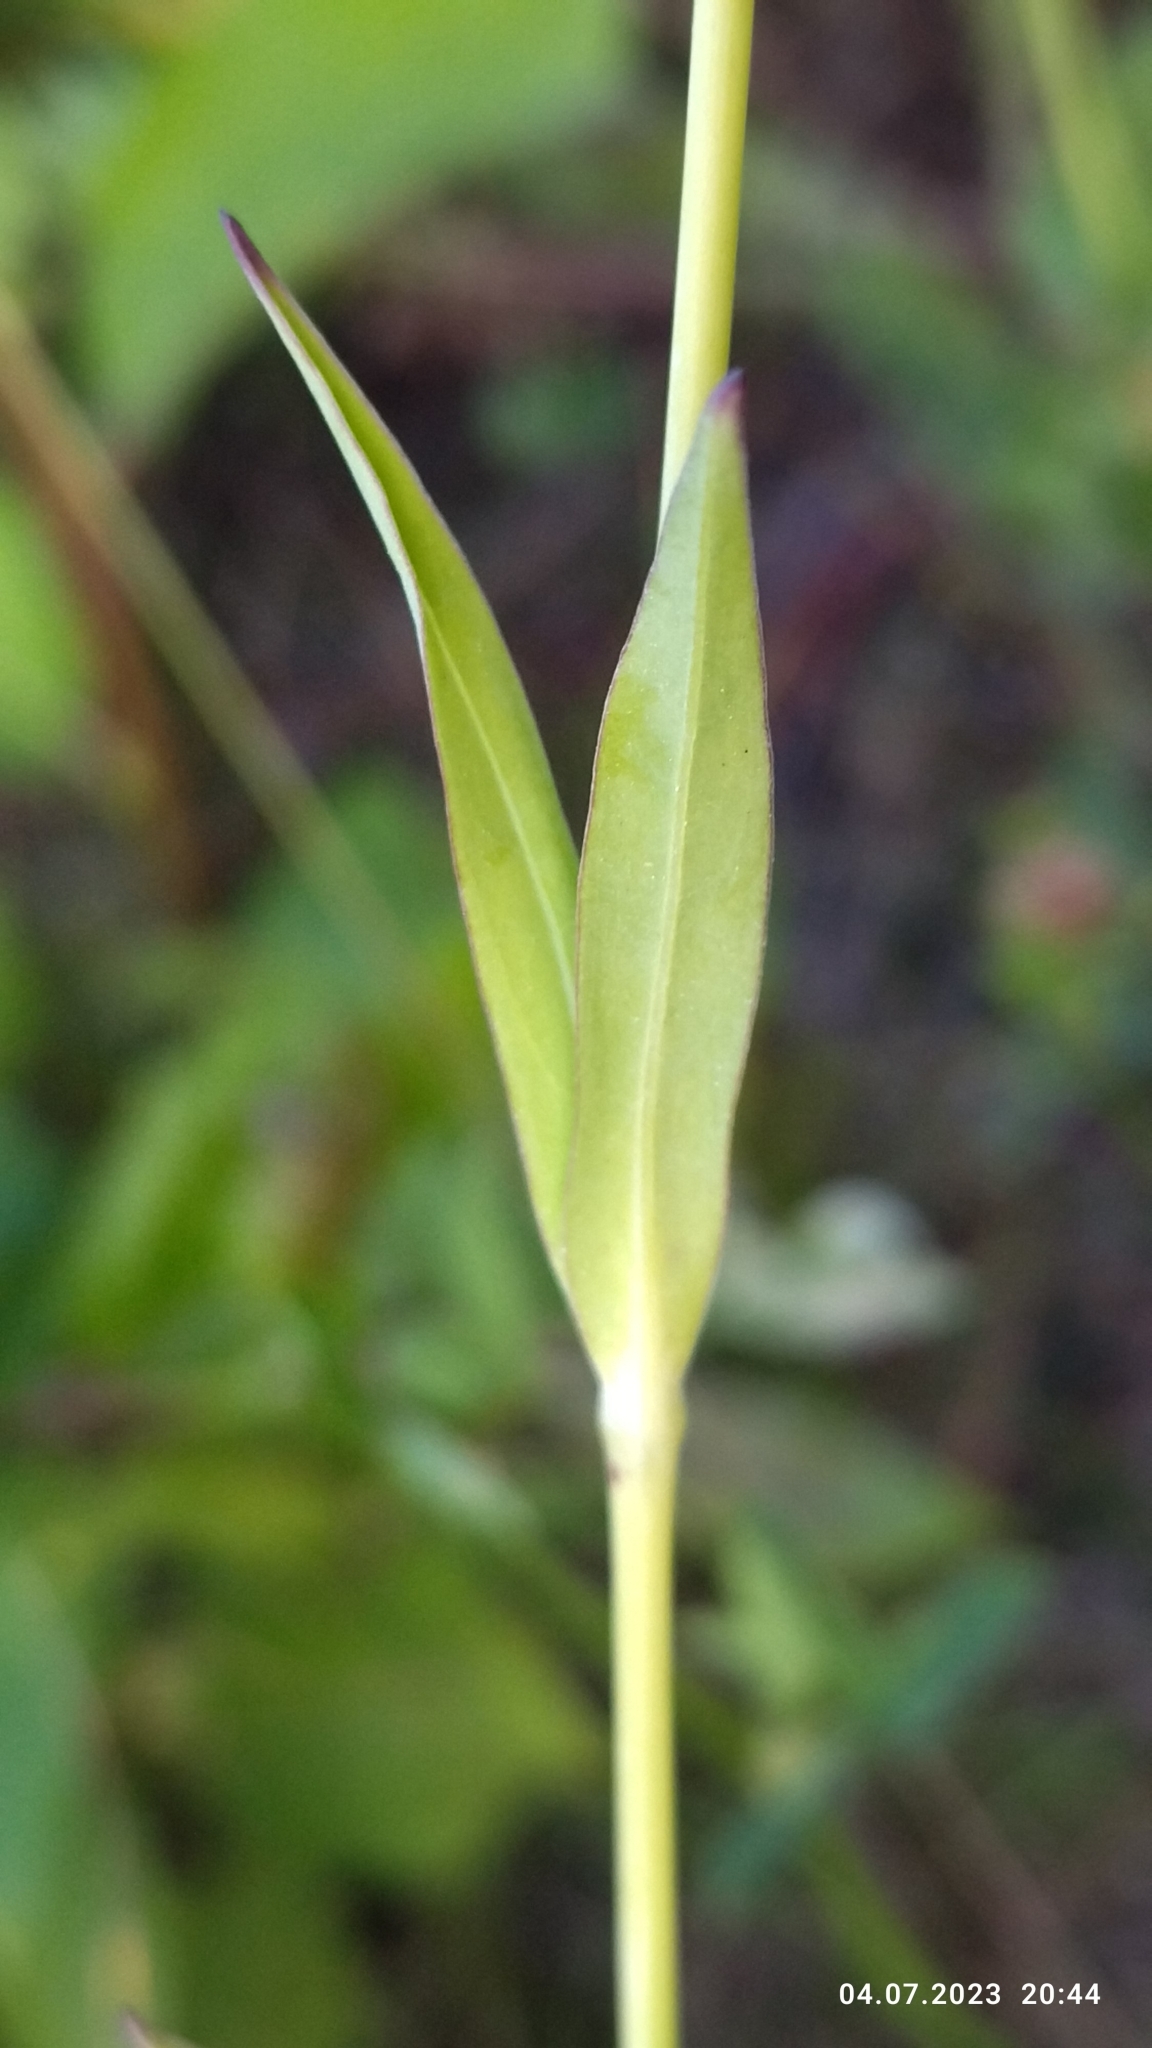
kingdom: Plantae
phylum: Tracheophyta
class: Magnoliopsida
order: Caryophyllales
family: Caryophyllaceae
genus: Silene
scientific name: Silene vulgaris
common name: Bladder campion
